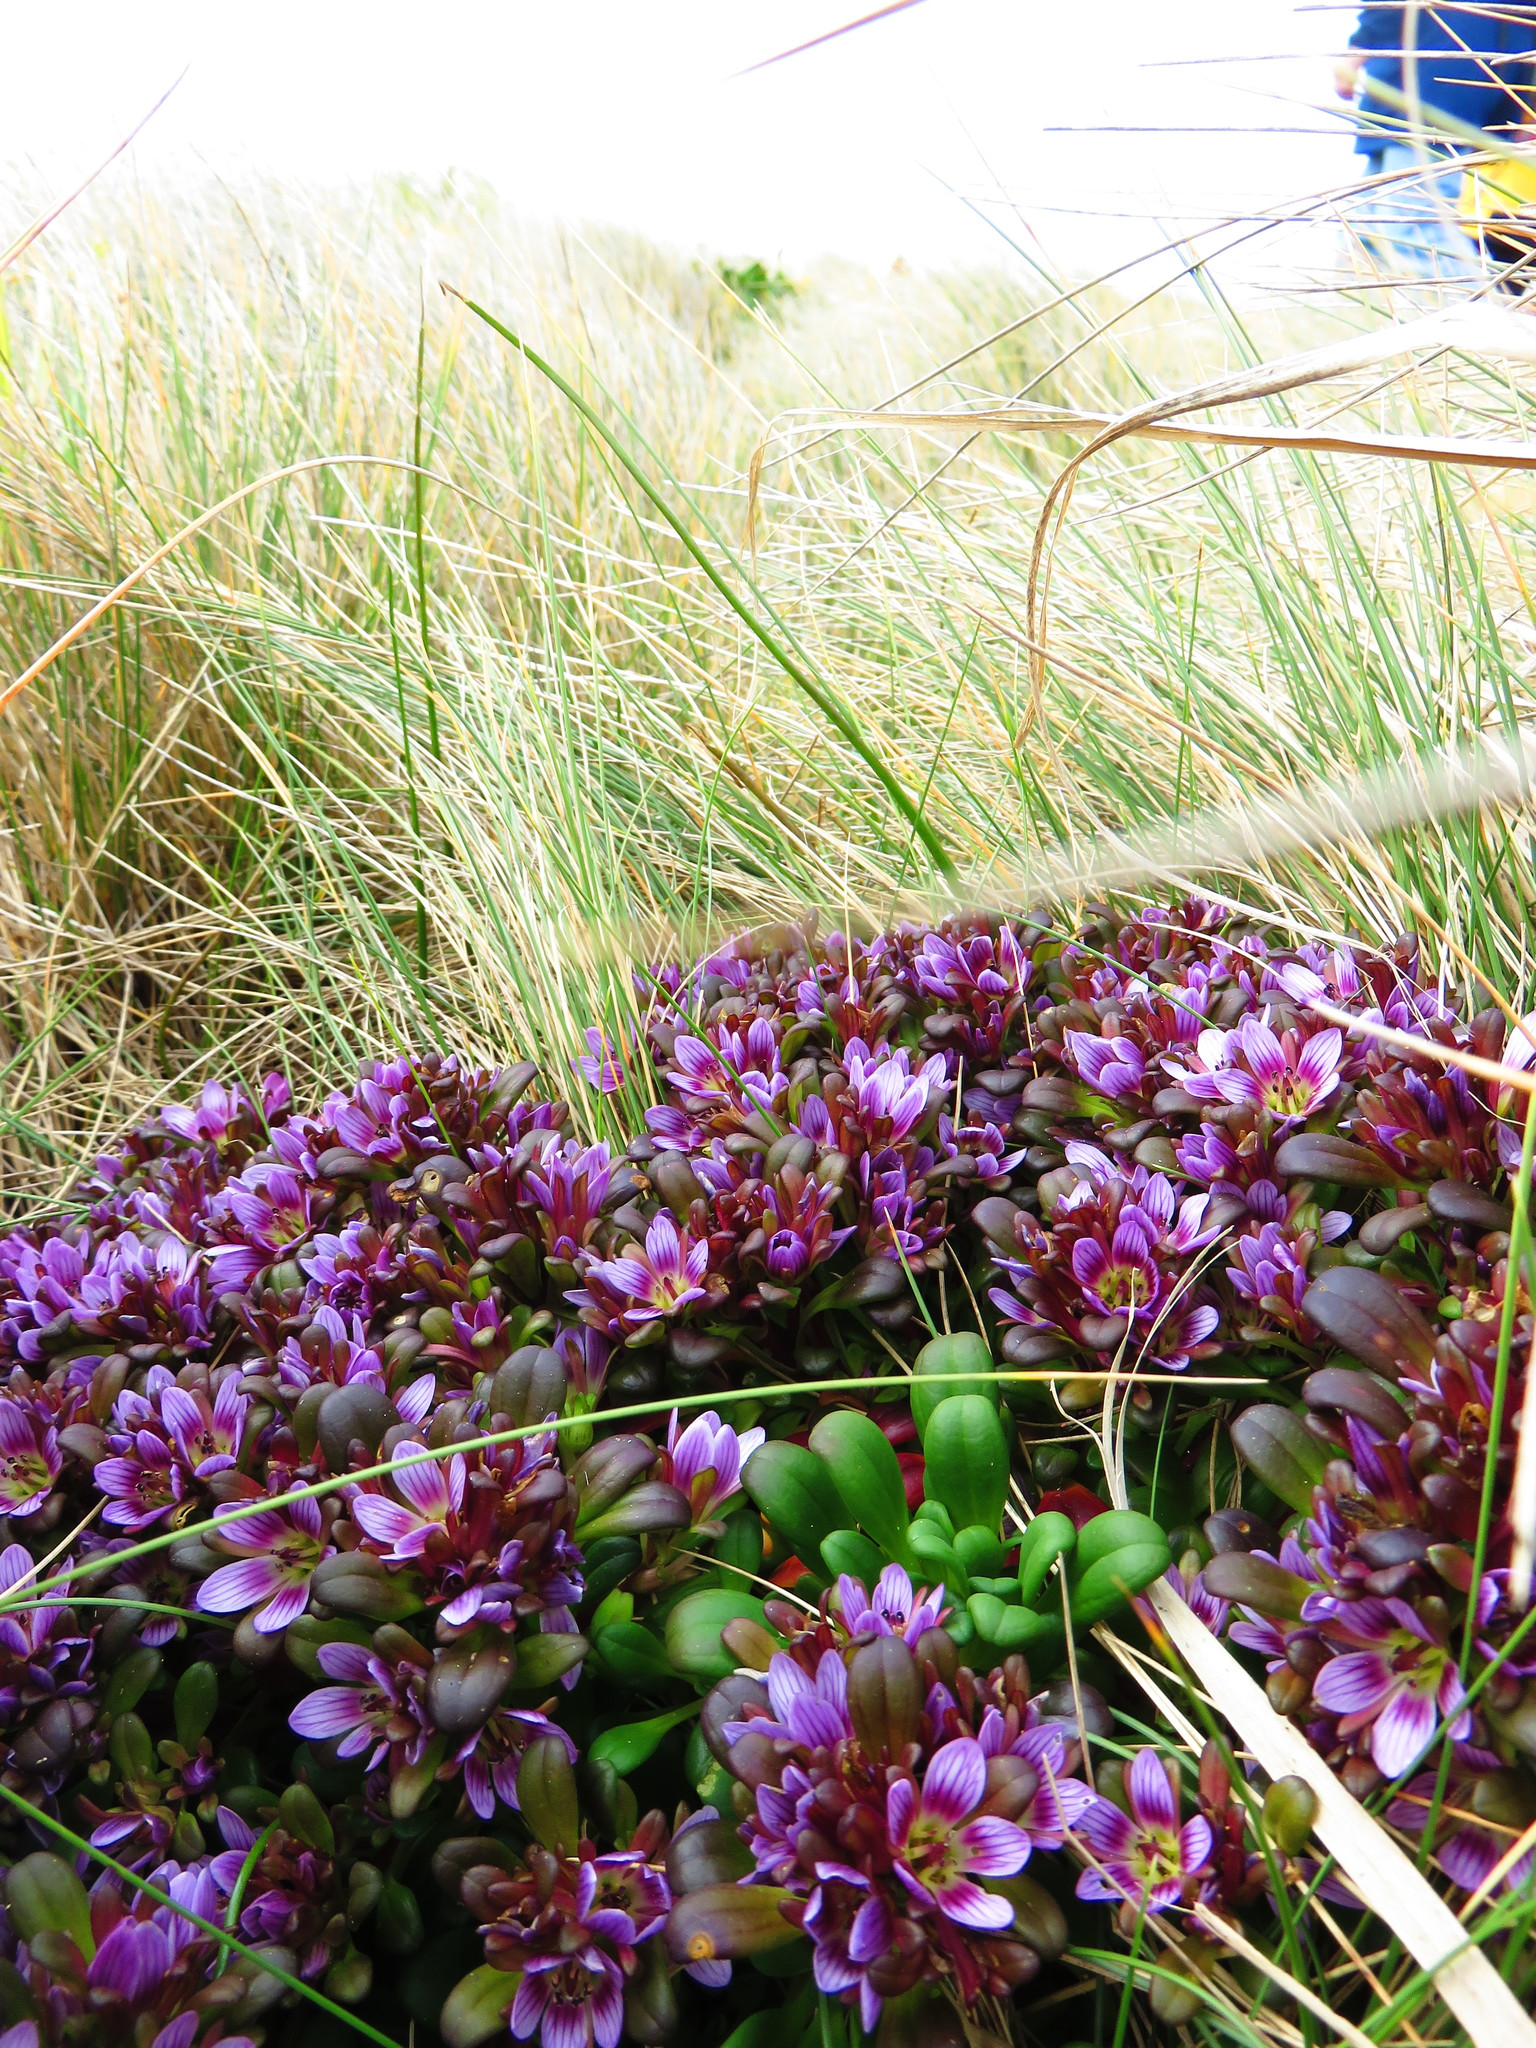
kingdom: Plantae
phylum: Tracheophyta
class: Magnoliopsida
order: Gentianales
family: Gentianaceae
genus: Gentianella
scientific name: Gentianella cerina
